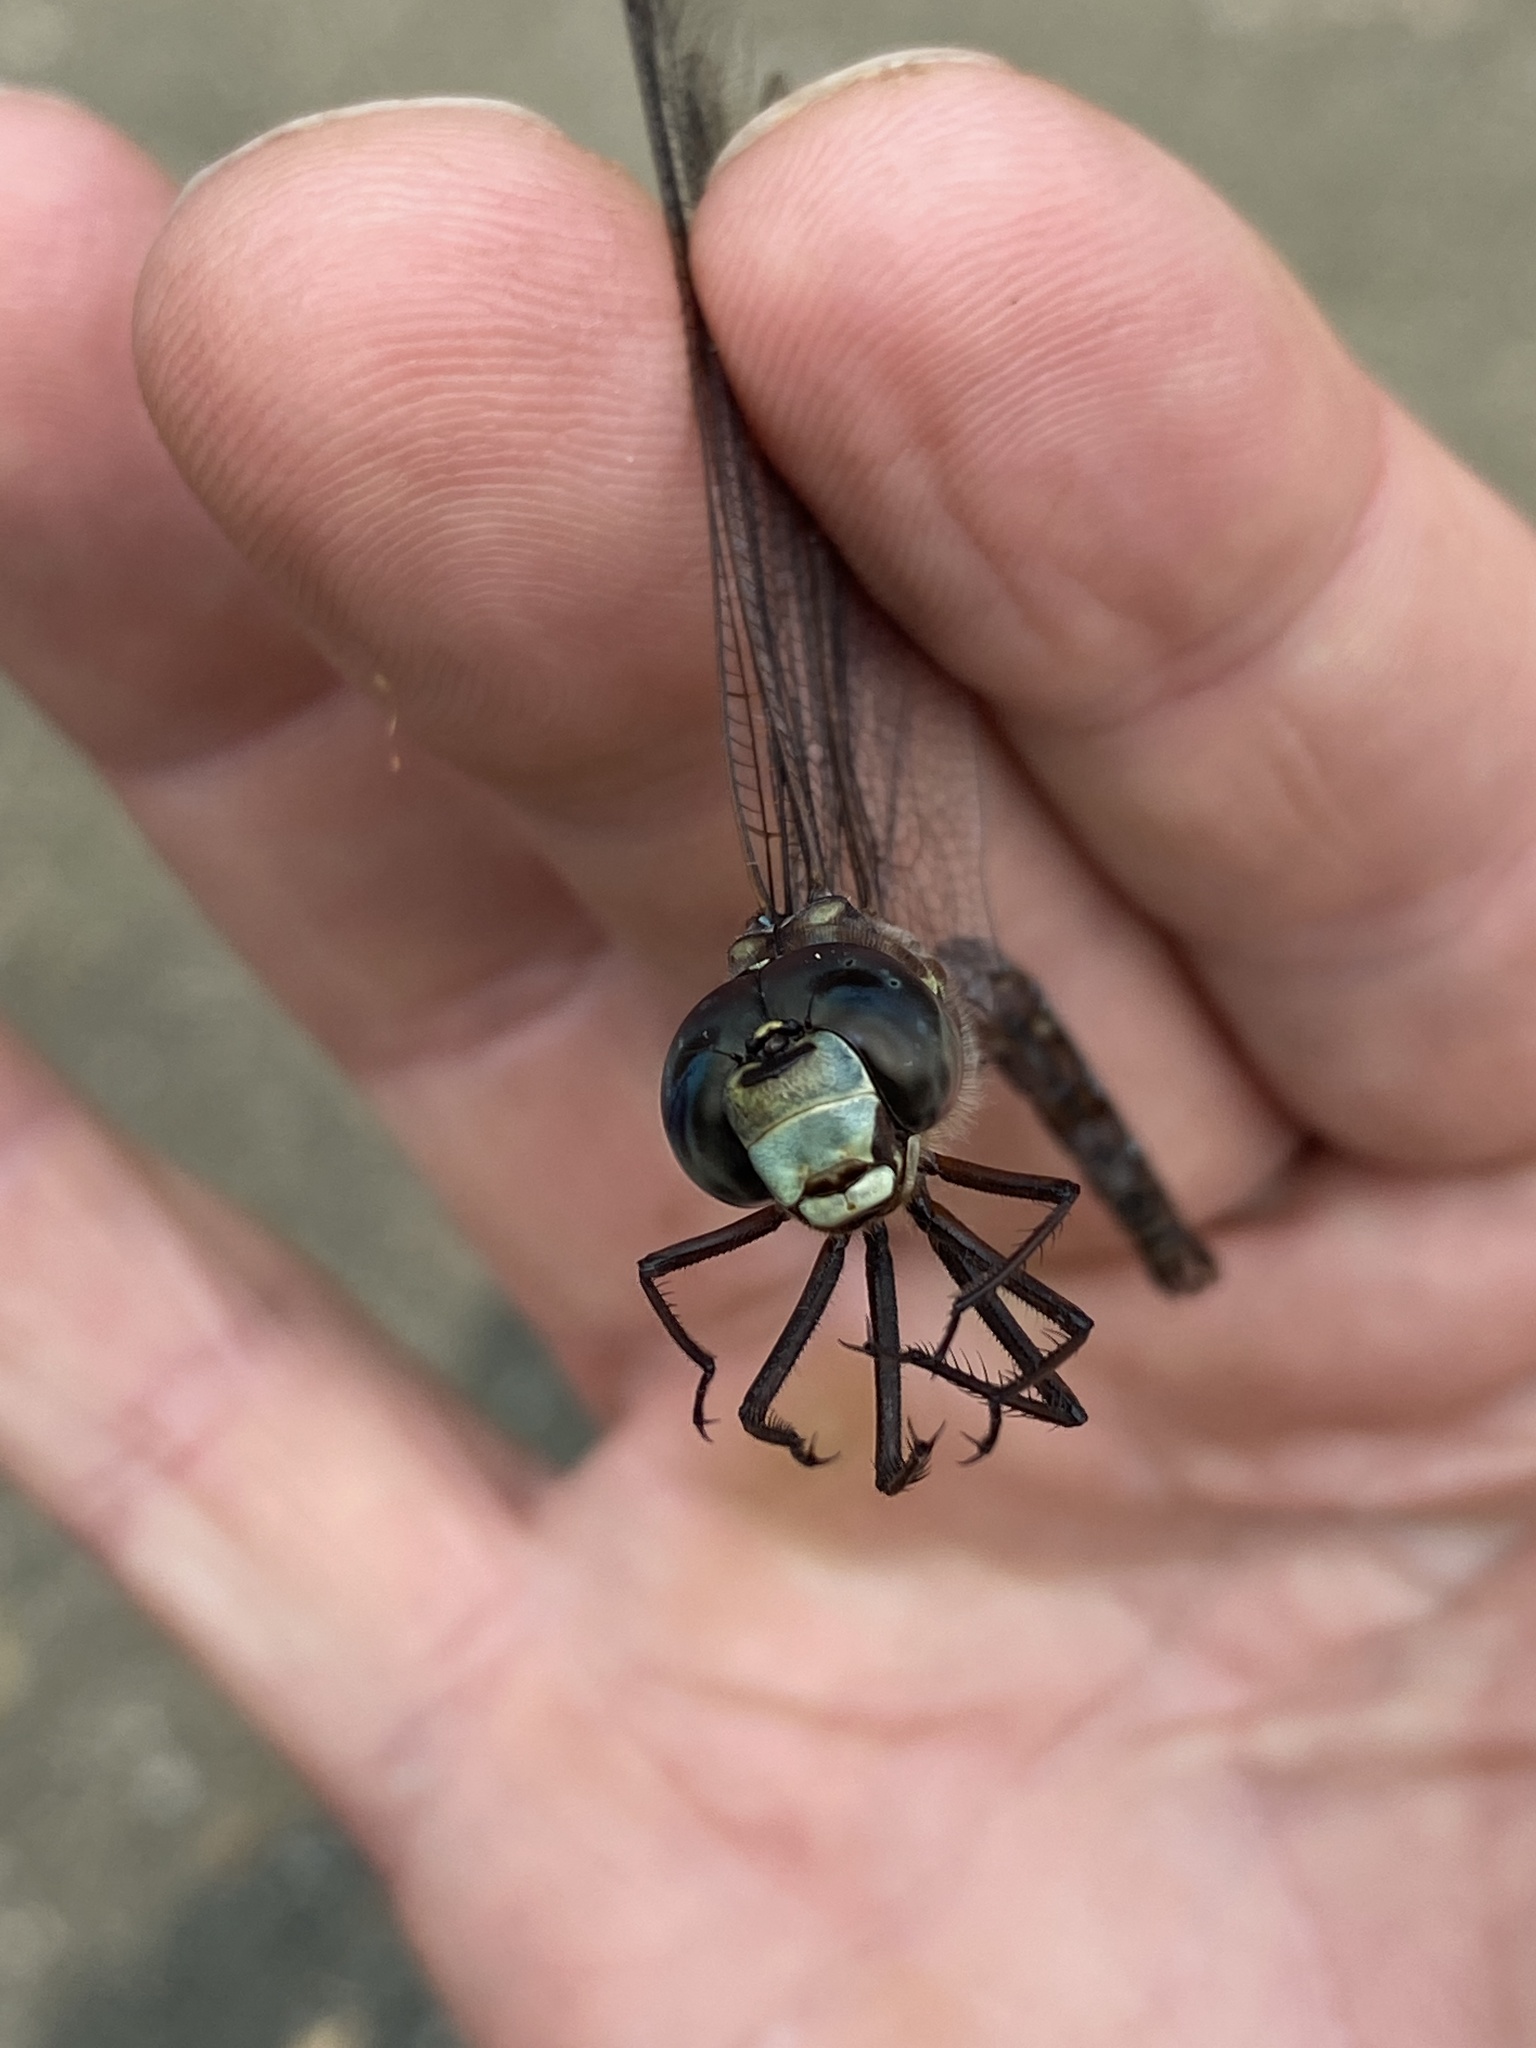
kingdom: Animalia
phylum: Arthropoda
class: Insecta
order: Odonata
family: Aeshnidae
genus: Aeshna
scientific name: Aeshna canadensis
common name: Canada darner
